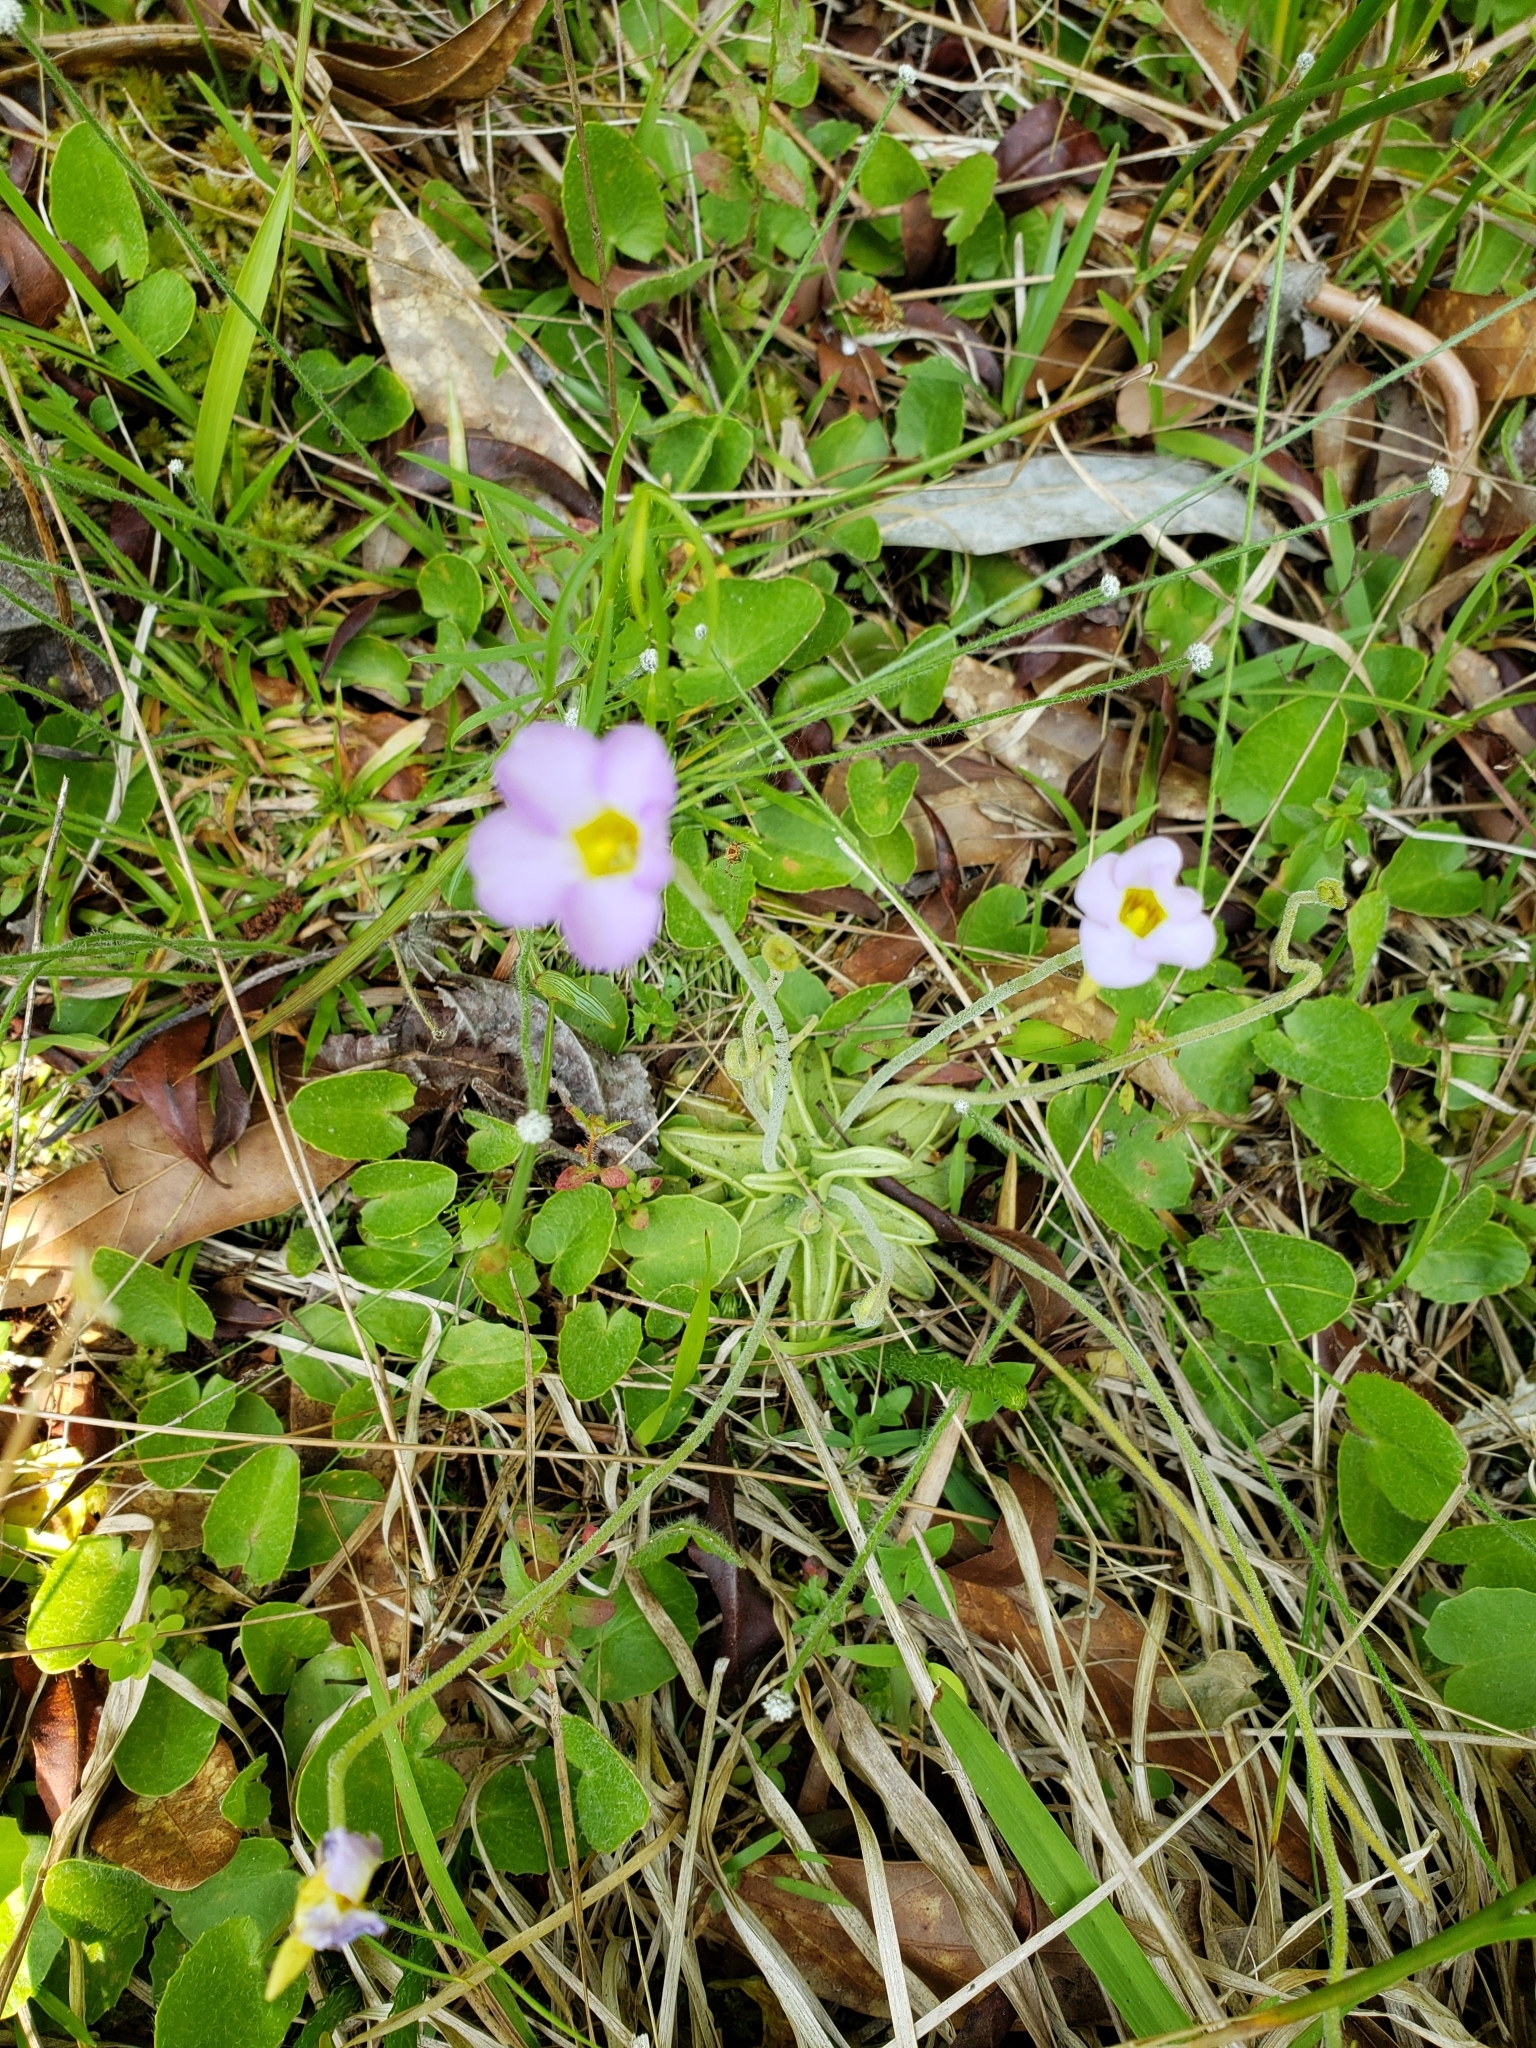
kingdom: Plantae
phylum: Tracheophyta
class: Magnoliopsida
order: Lamiales
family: Lentibulariaceae
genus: Pinguicula
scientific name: Pinguicula pumila
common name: Small butterwort
